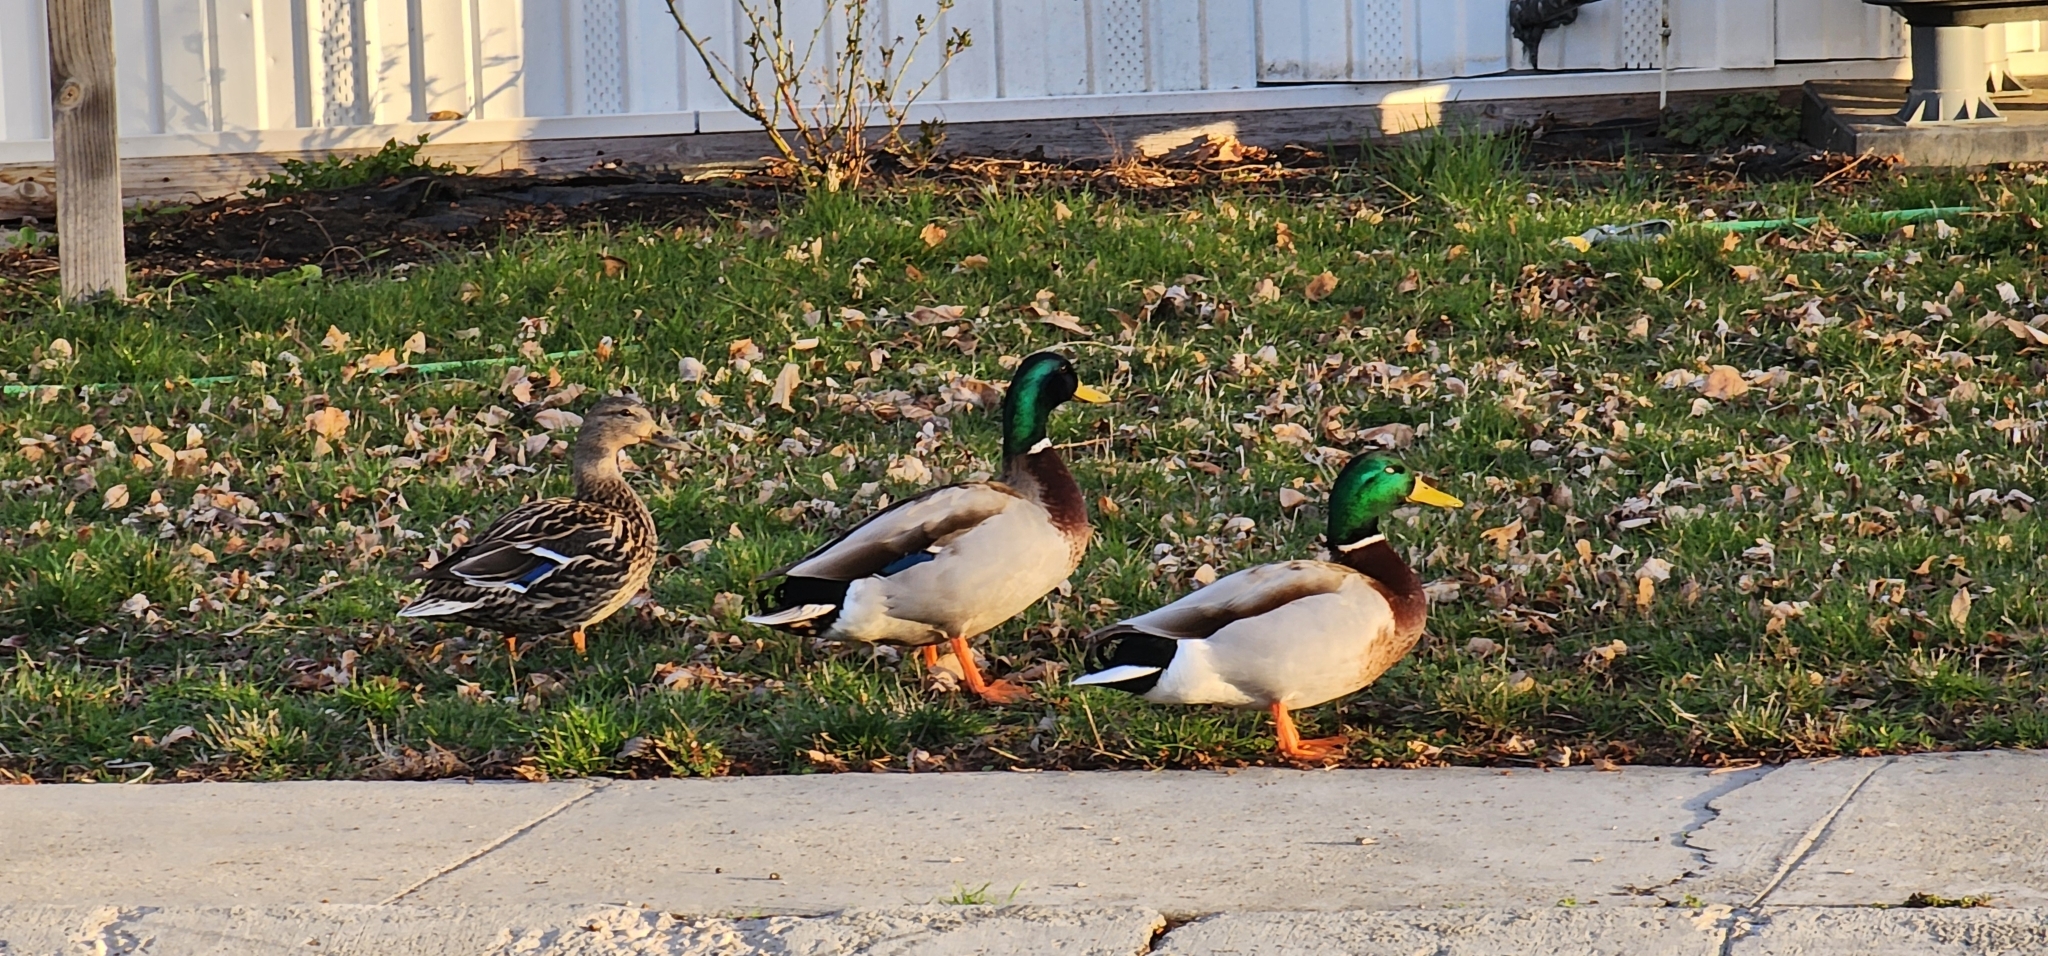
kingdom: Animalia
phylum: Chordata
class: Aves
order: Anseriformes
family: Anatidae
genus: Anas
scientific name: Anas platyrhynchos
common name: Mallard
